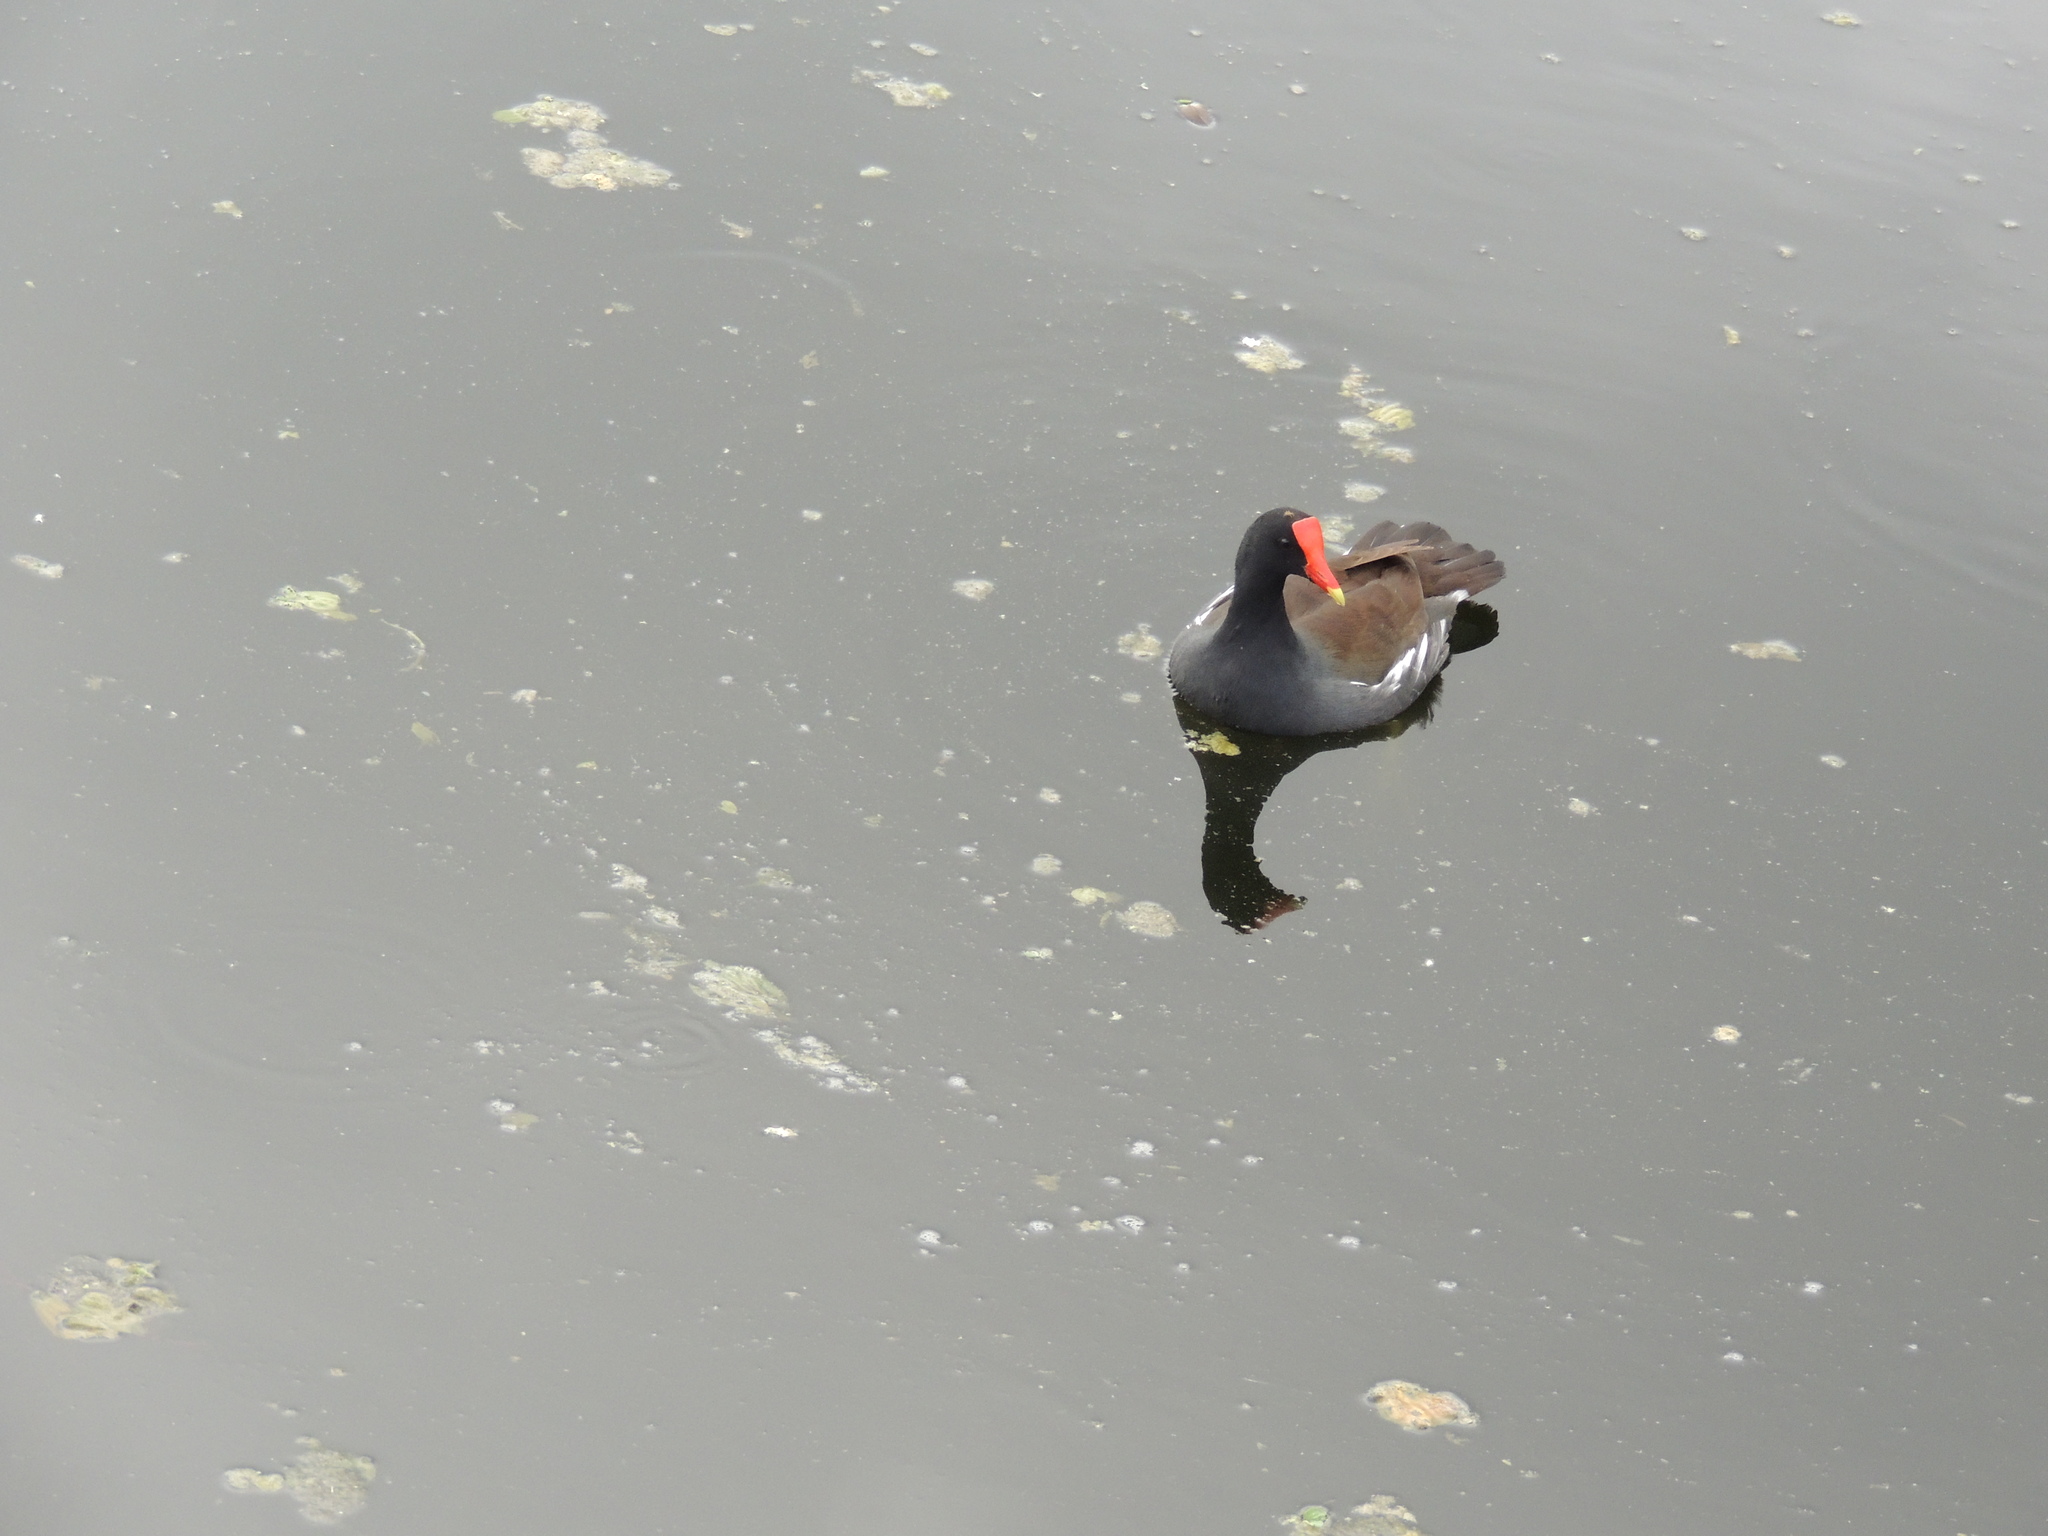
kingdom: Animalia
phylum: Chordata
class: Aves
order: Gruiformes
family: Rallidae
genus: Gallinula
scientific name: Gallinula chloropus
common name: Common moorhen
